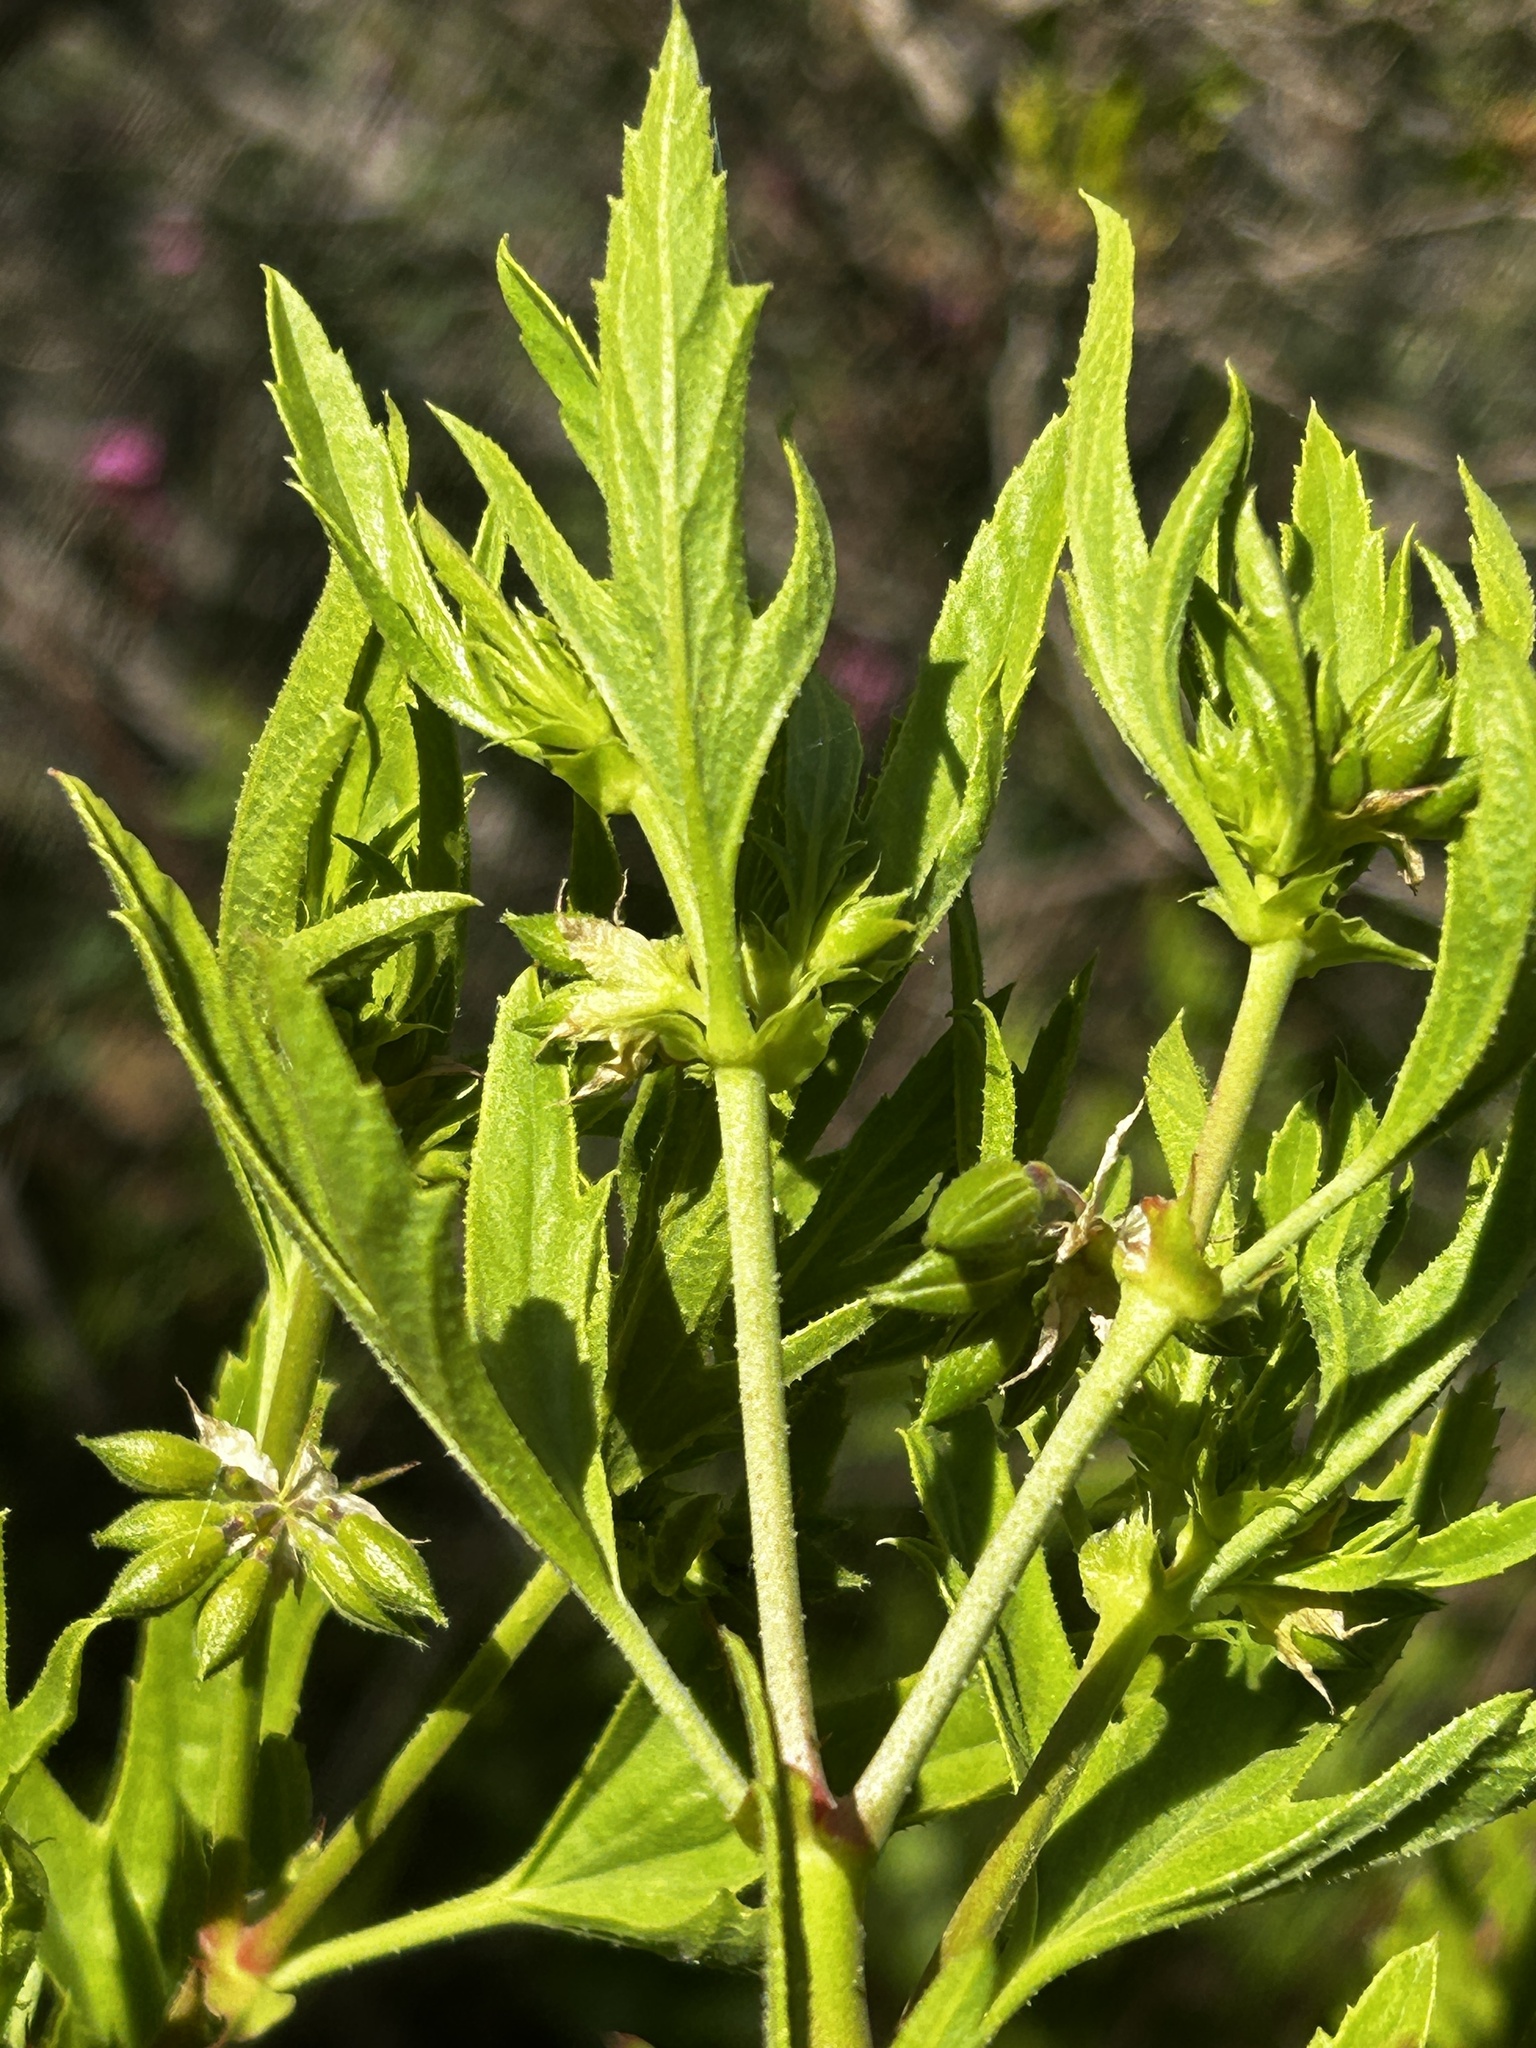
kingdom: Plantae
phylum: Tracheophyta
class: Magnoliopsida
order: Geraniales
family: Geraniaceae
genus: Pelargonium
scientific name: Pelargonium scabrum
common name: Apricot geranium
